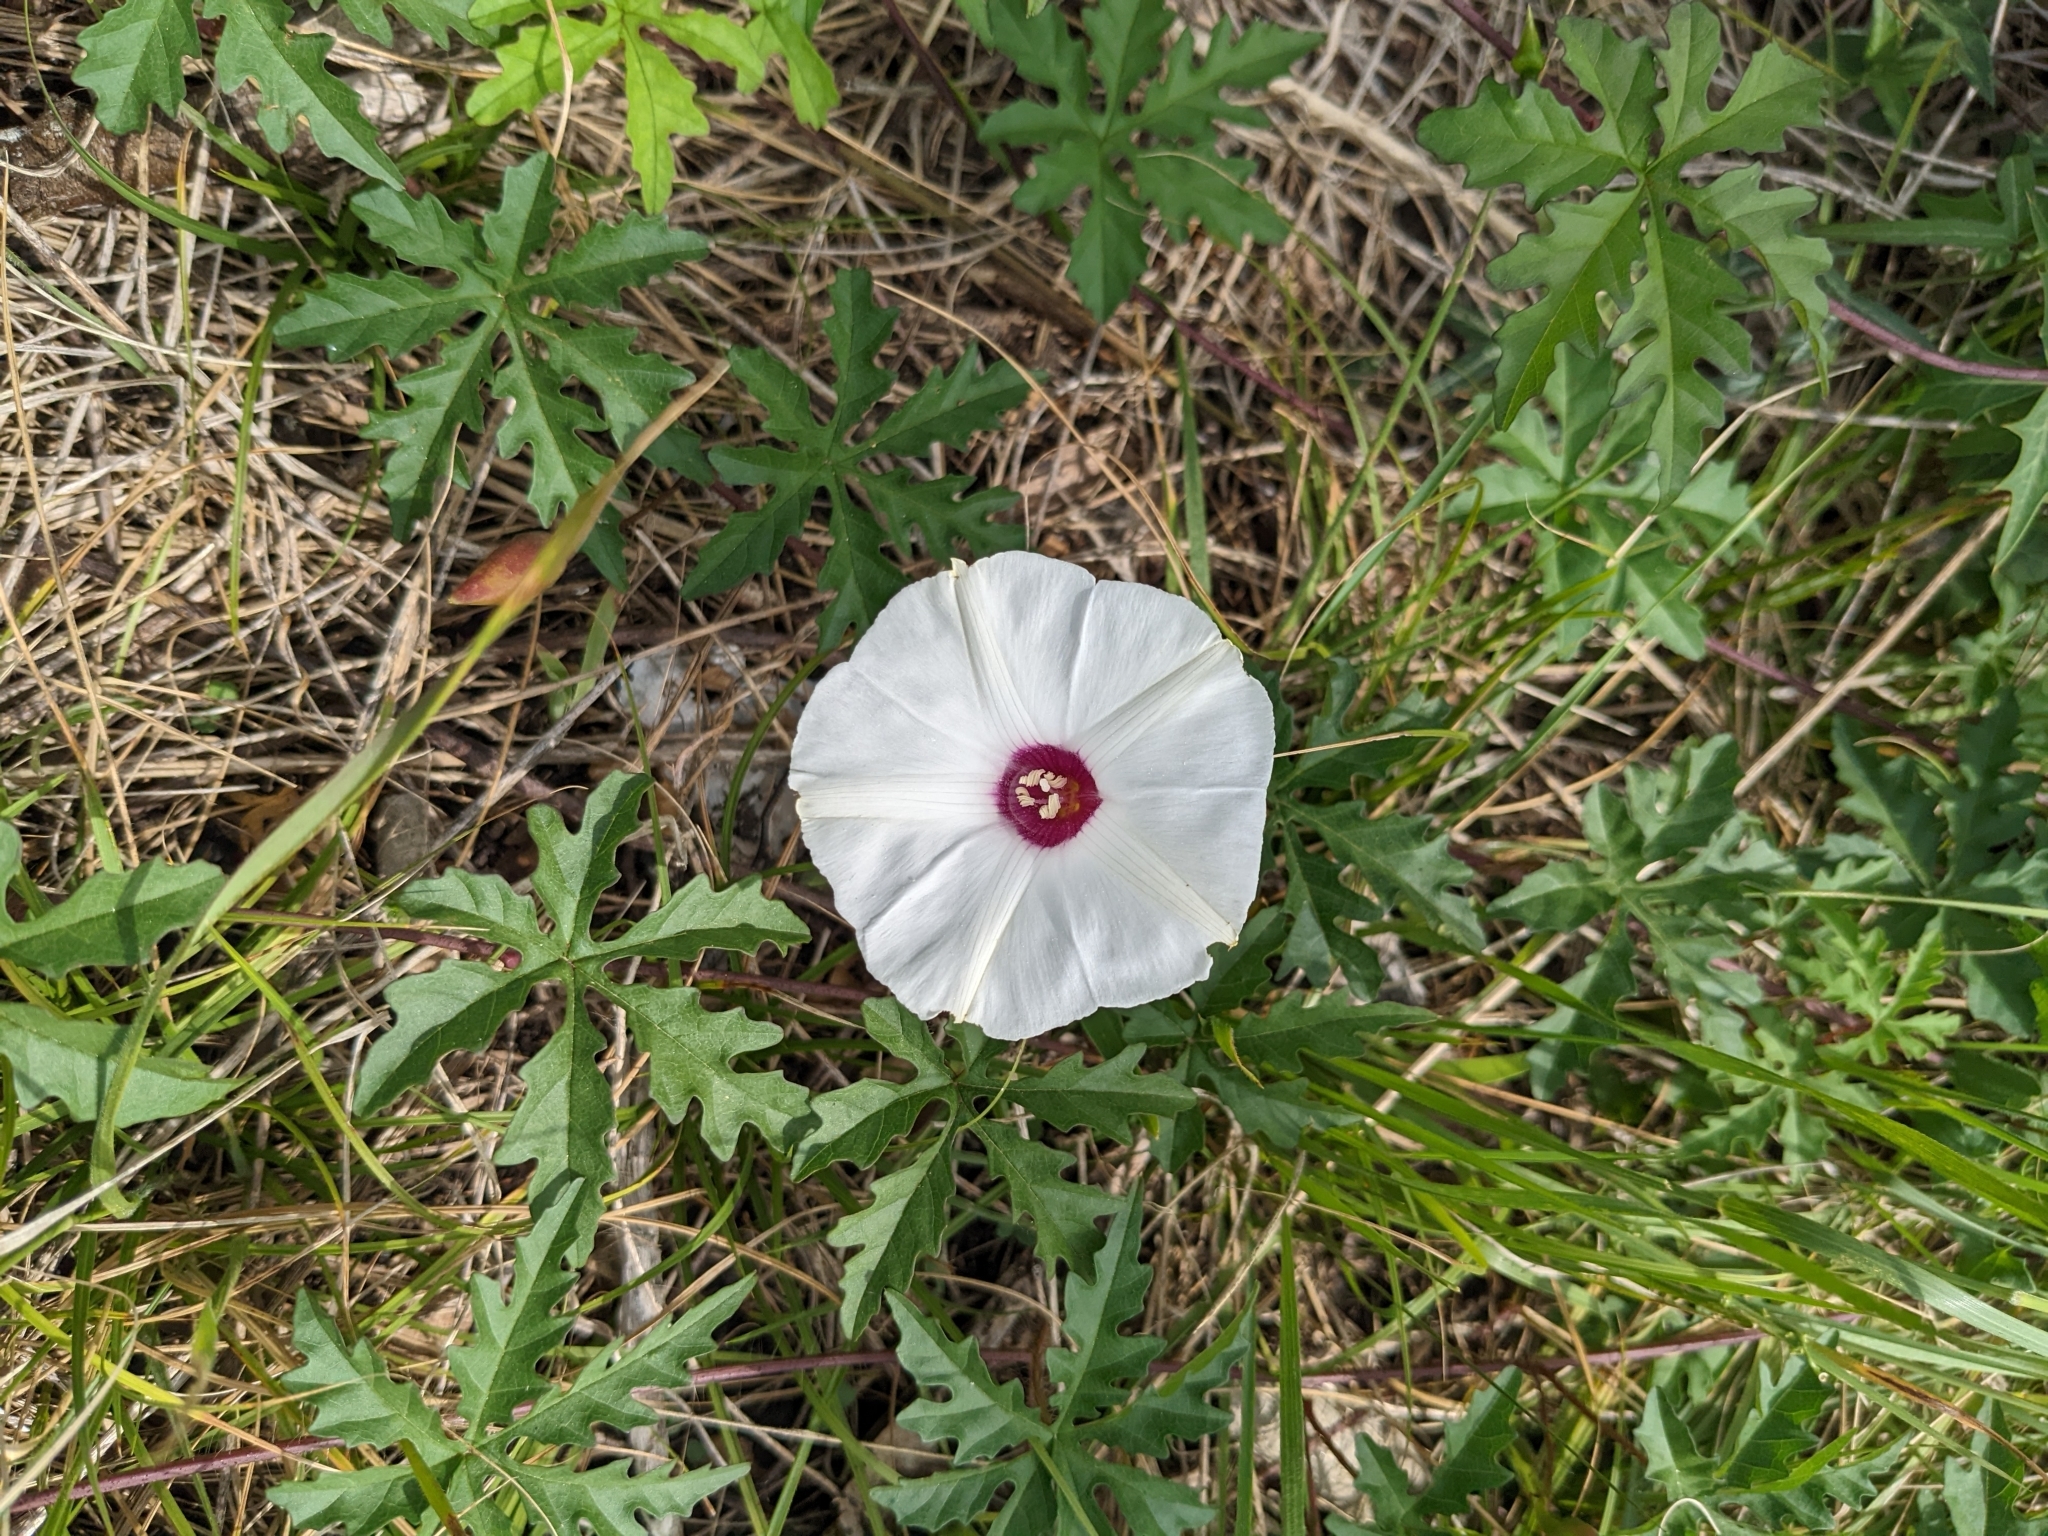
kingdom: Plantae
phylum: Tracheophyta
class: Magnoliopsida
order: Solanales
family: Convolvulaceae
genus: Distimake
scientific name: Distimake dissectus
